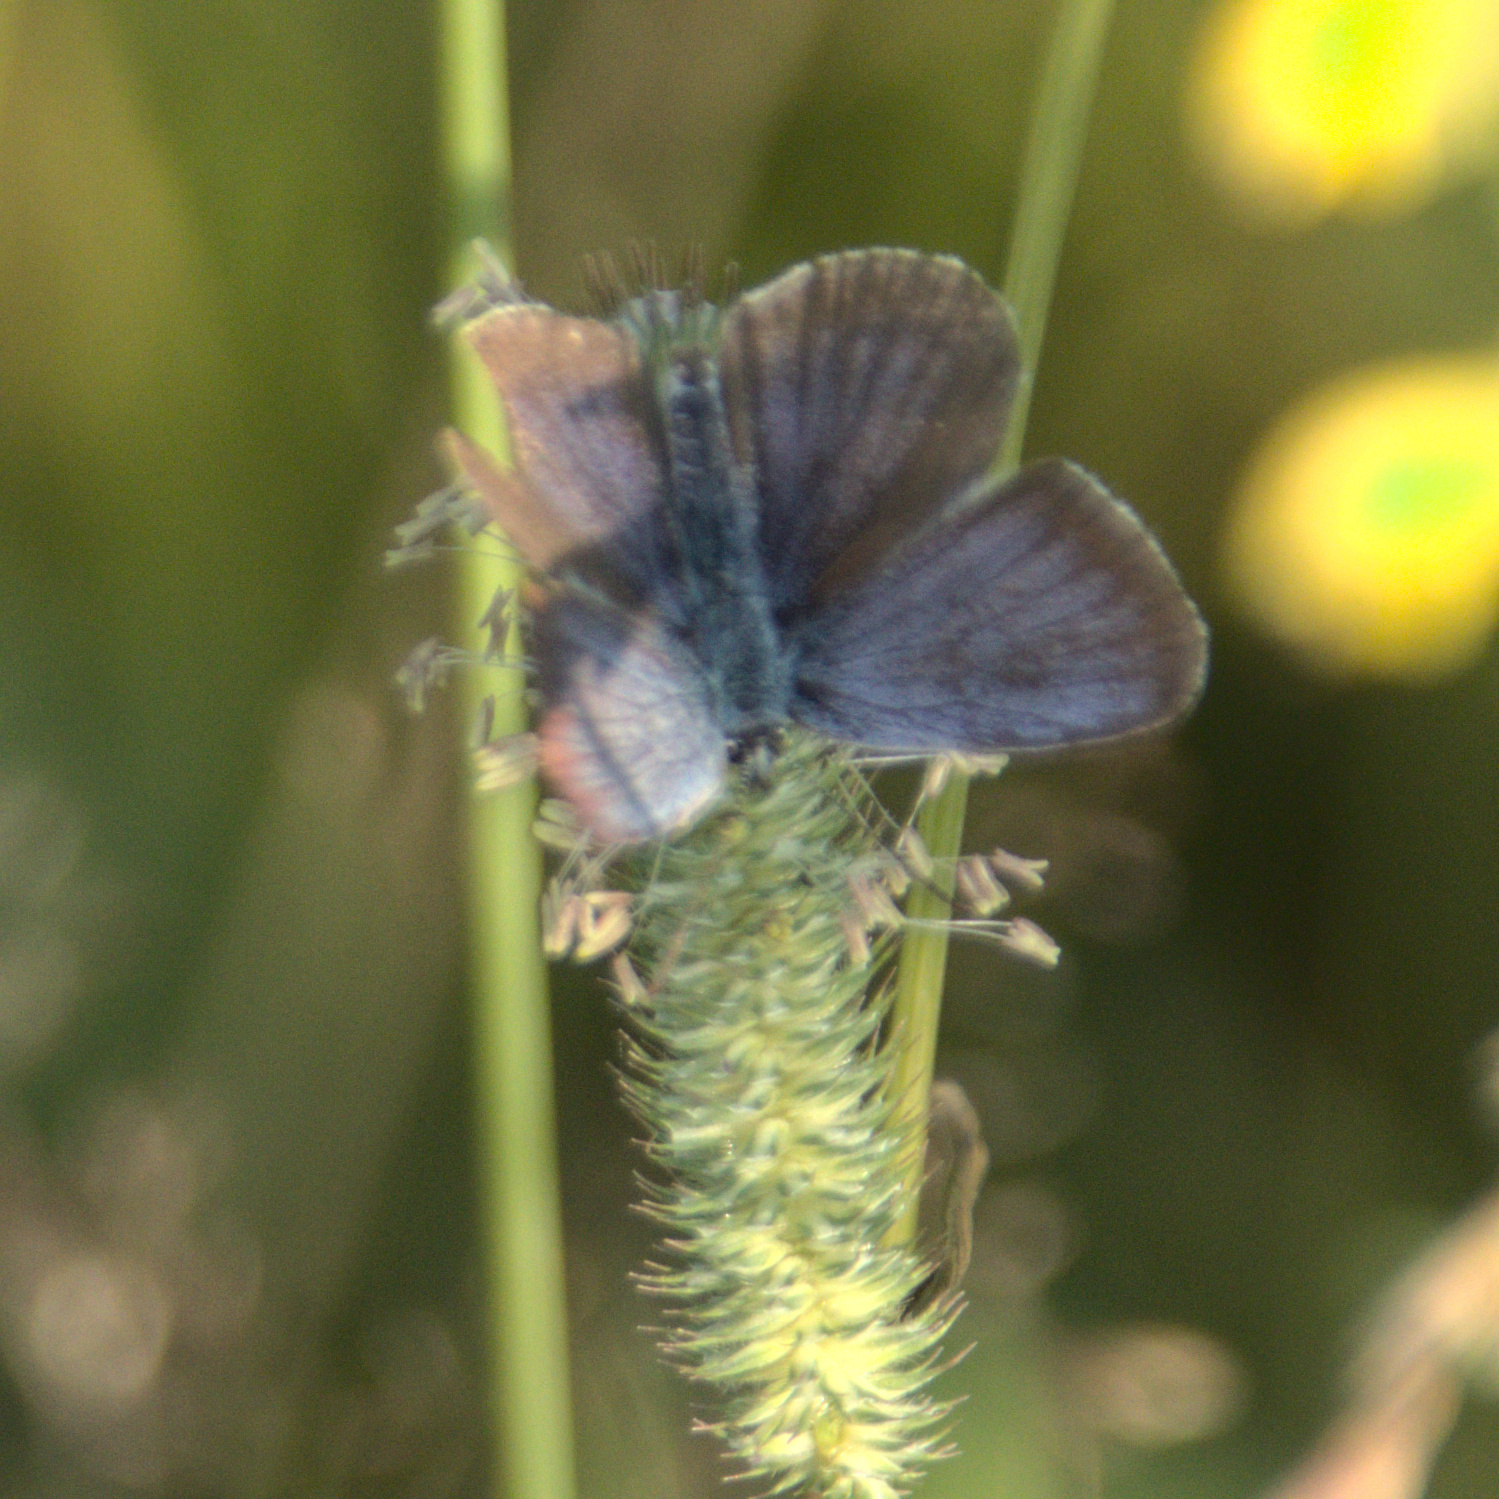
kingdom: Animalia
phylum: Arthropoda
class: Insecta
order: Lepidoptera
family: Lycaenidae
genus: Plebejus
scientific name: Plebejus argus
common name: Silver-studded blue
